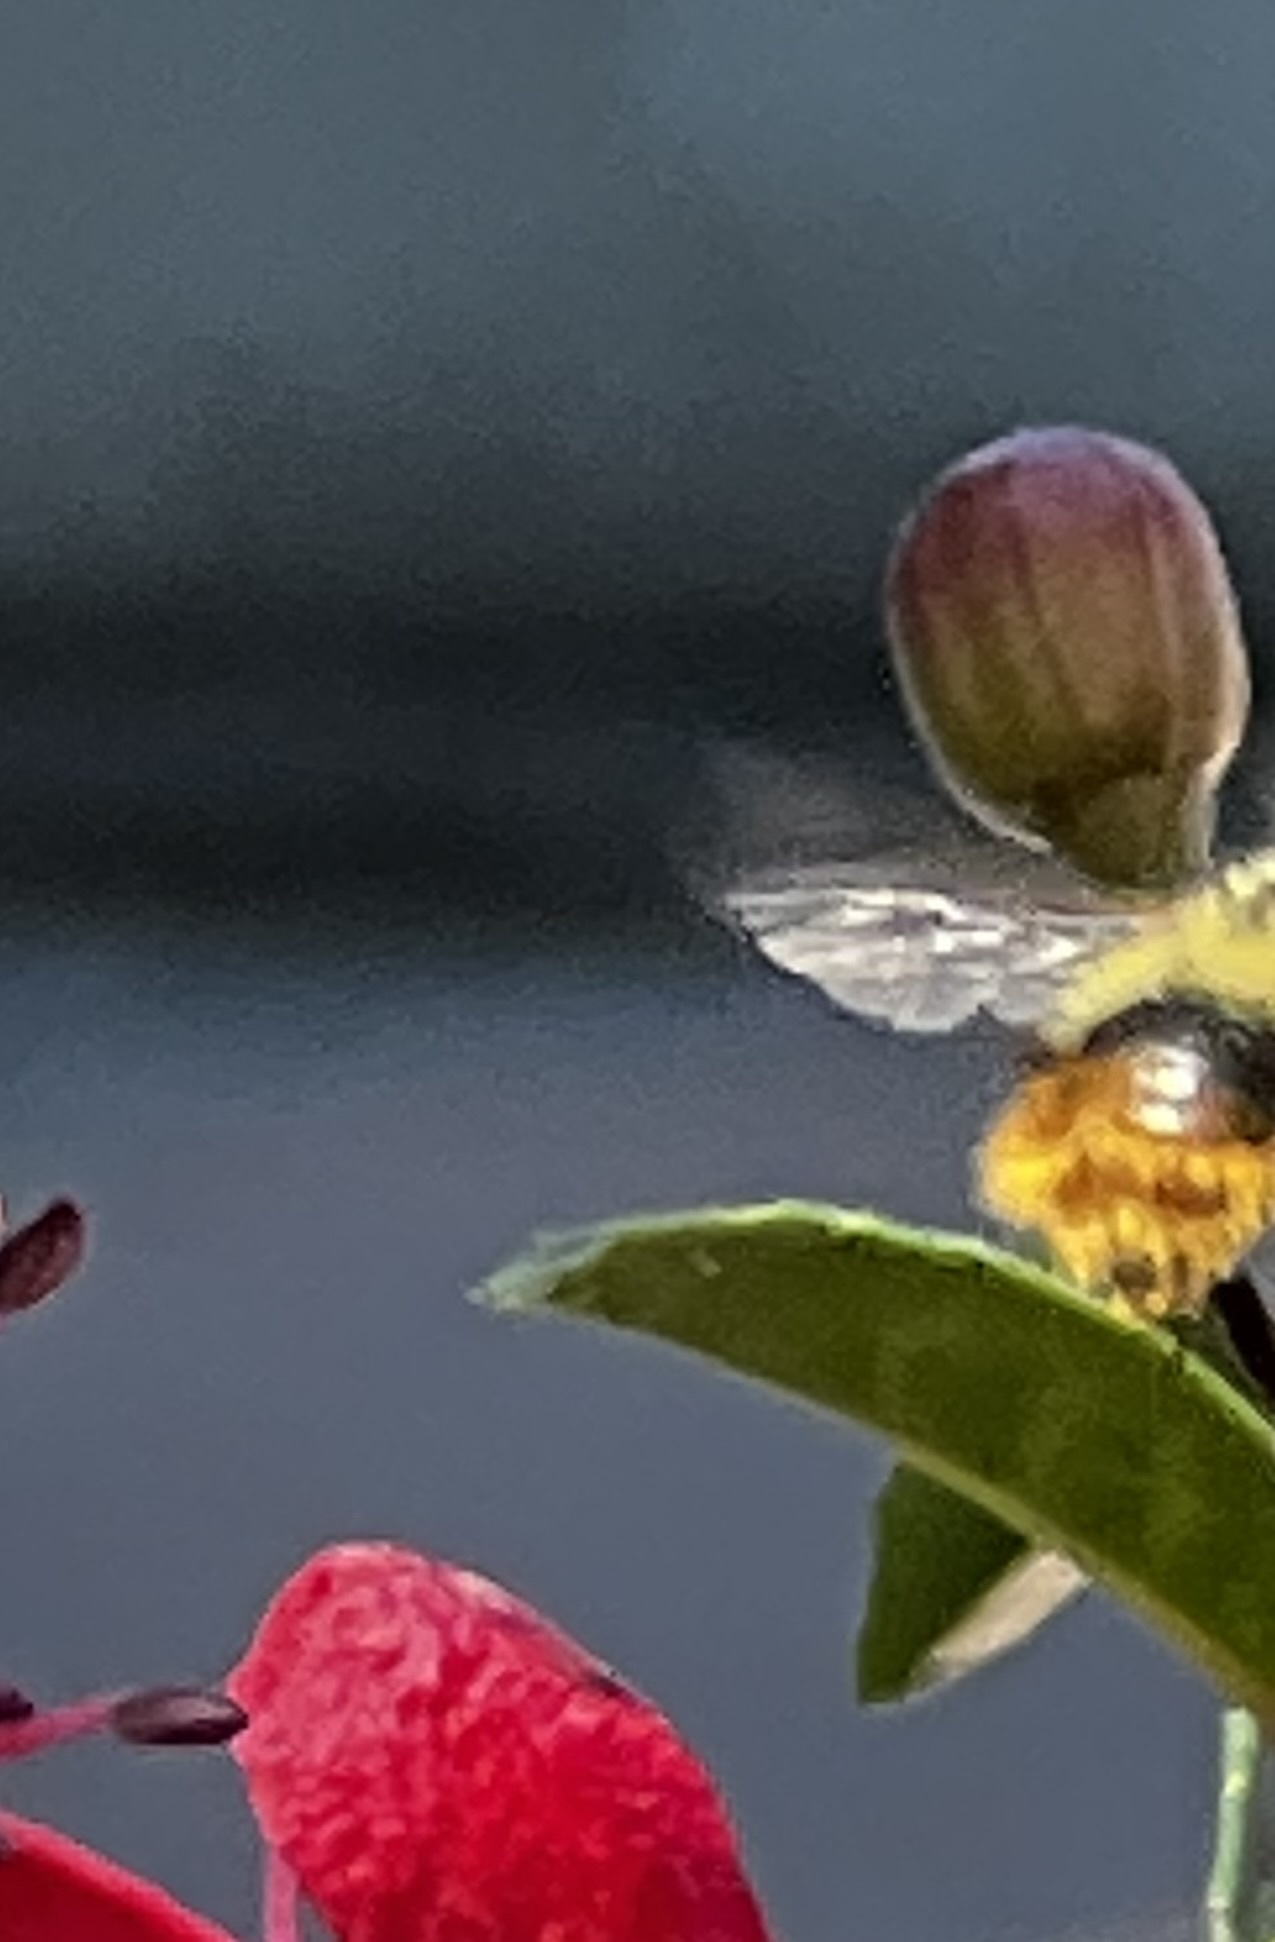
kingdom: Animalia
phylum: Arthropoda
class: Insecta
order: Hymenoptera
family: Apidae
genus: Bombus
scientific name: Bombus mixtus
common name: Fuzzy-horned bumble bee
